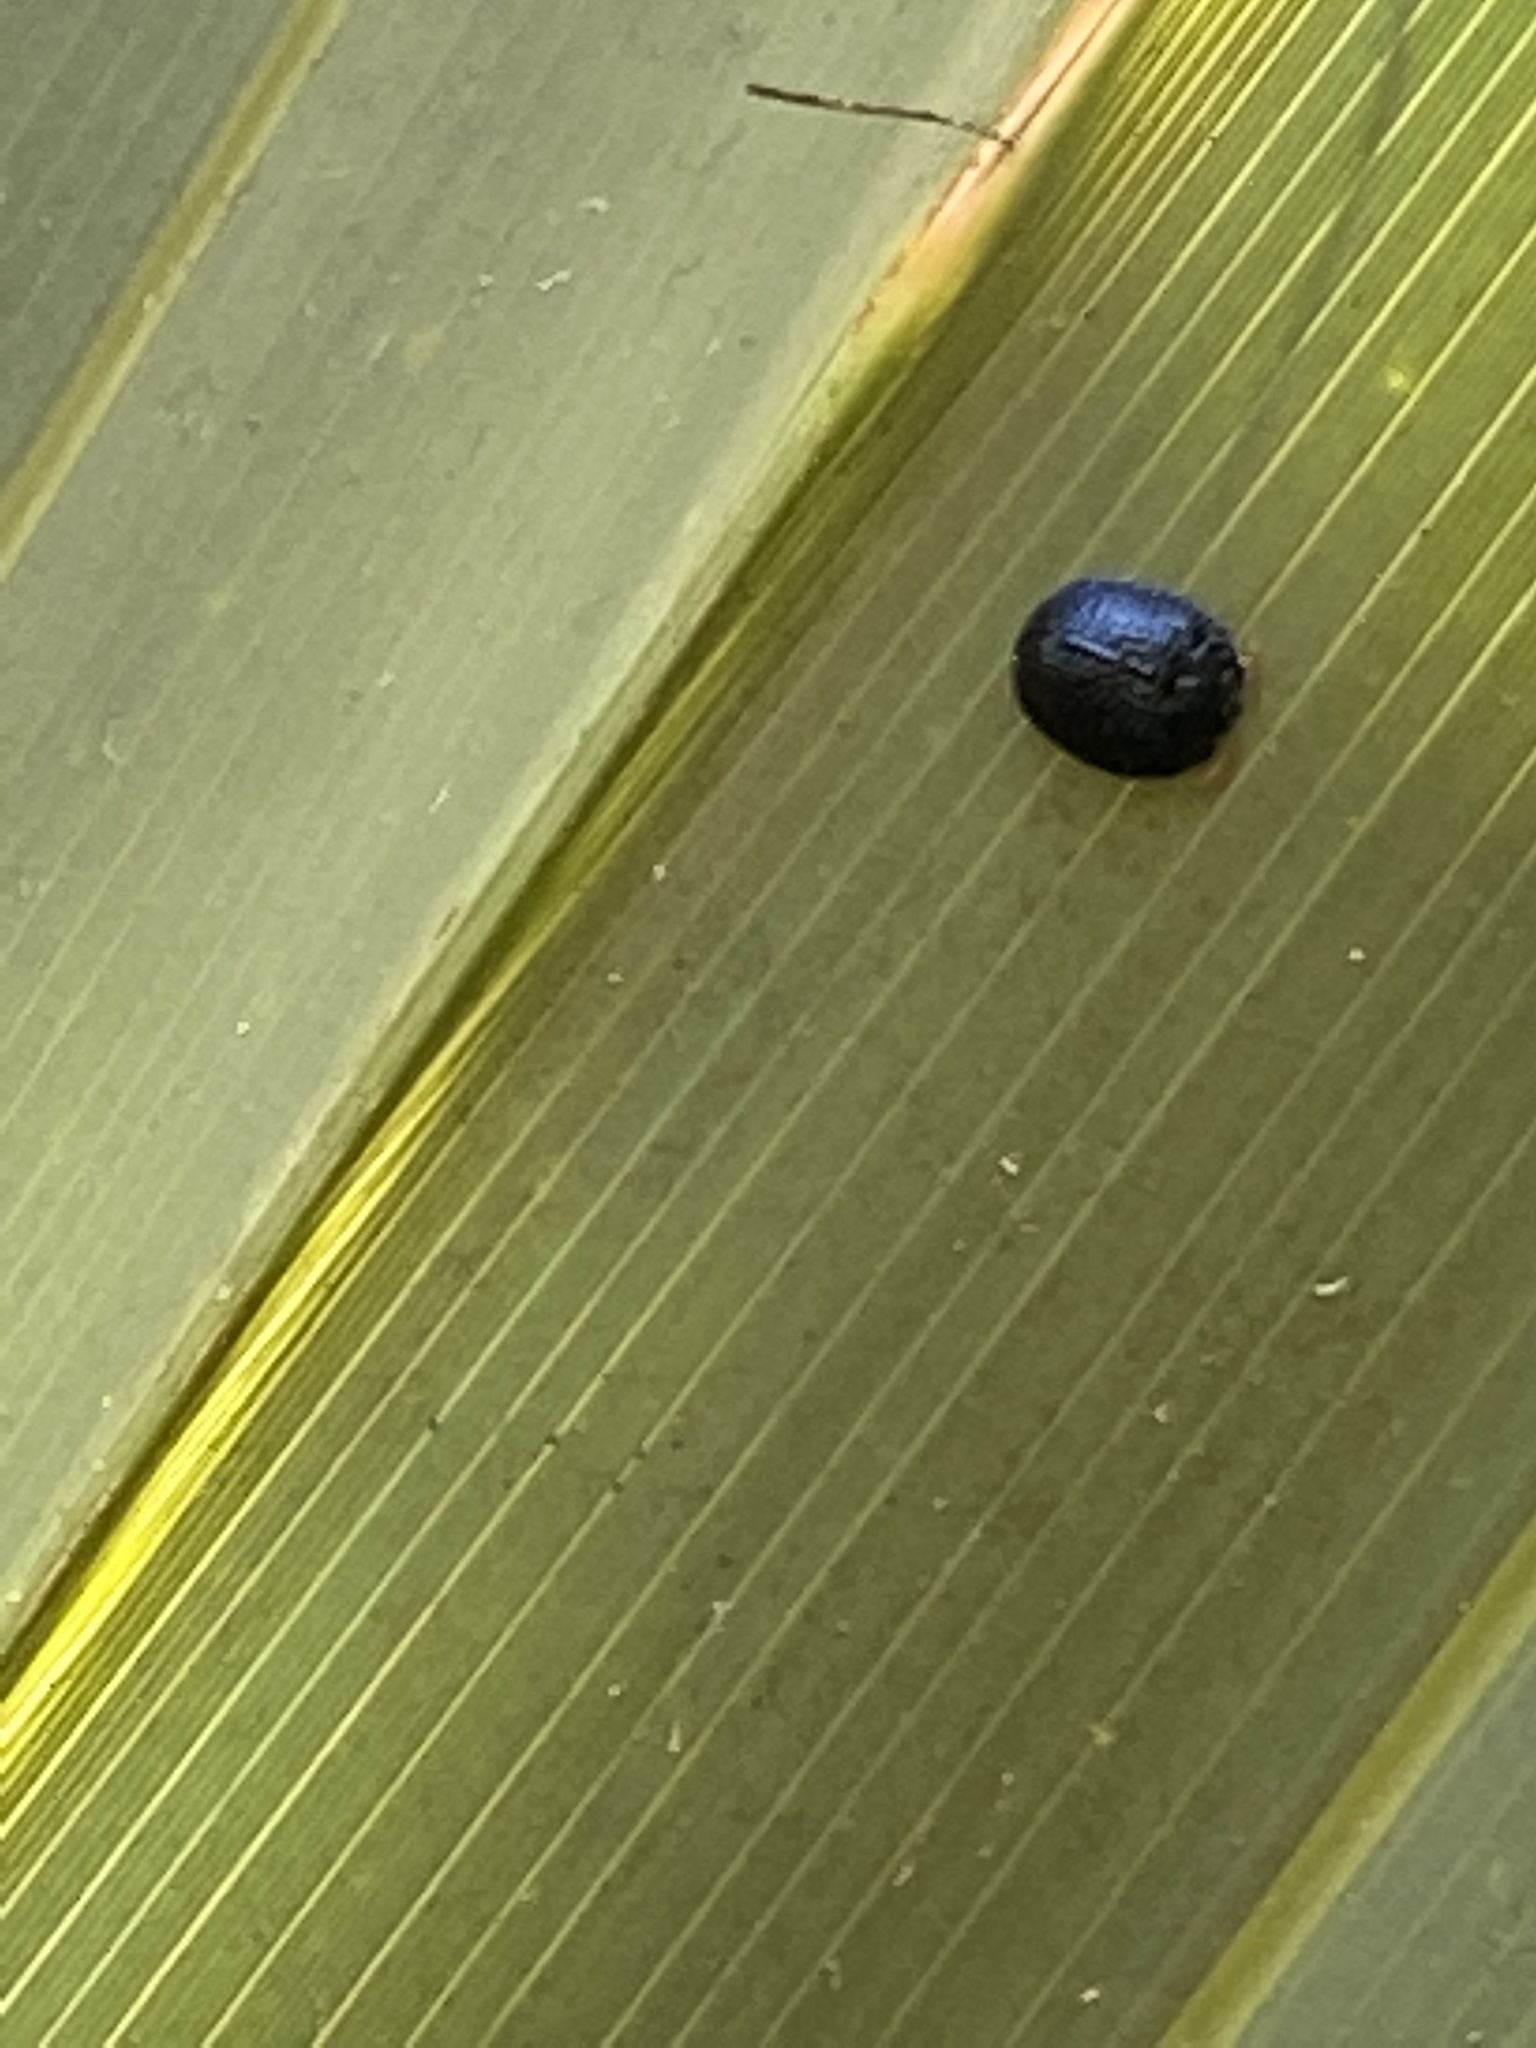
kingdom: Animalia
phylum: Arthropoda
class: Insecta
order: Coleoptera
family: Chrysomelidae
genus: Hemisphaerota
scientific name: Hemisphaerota cyanea
